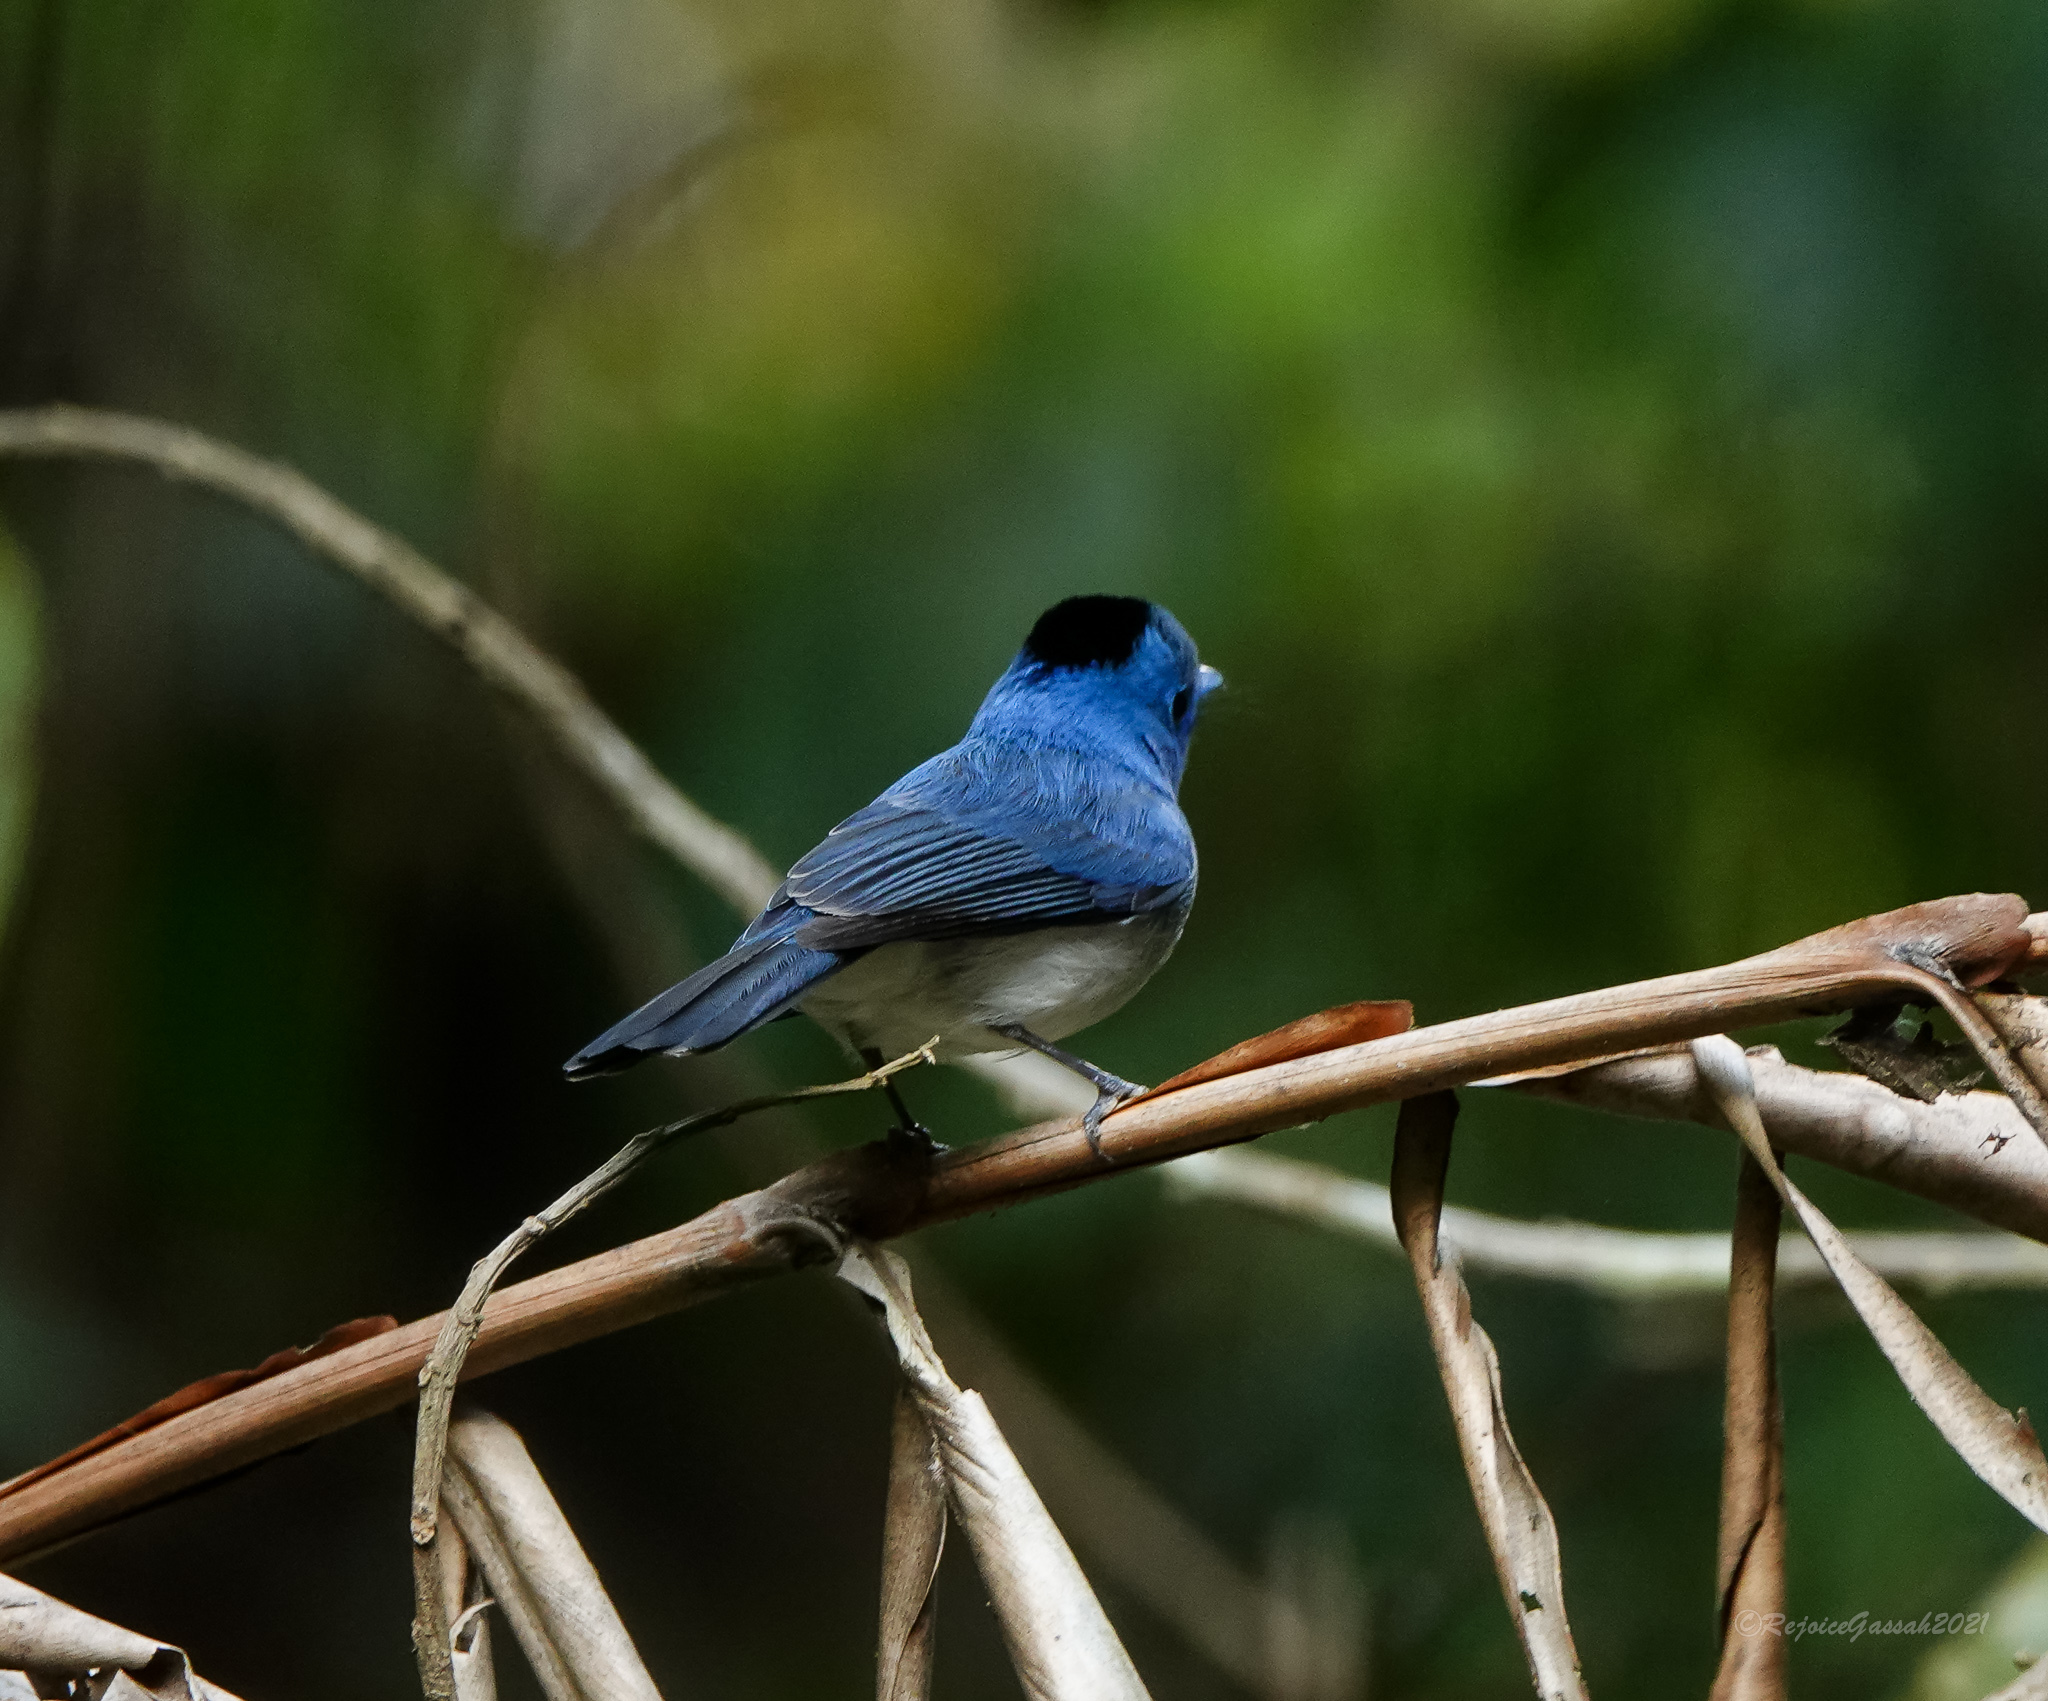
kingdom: Animalia
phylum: Chordata
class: Aves
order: Passeriformes
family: Monarchidae
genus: Hypothymis
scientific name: Hypothymis azurea
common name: Black-naped monarch
